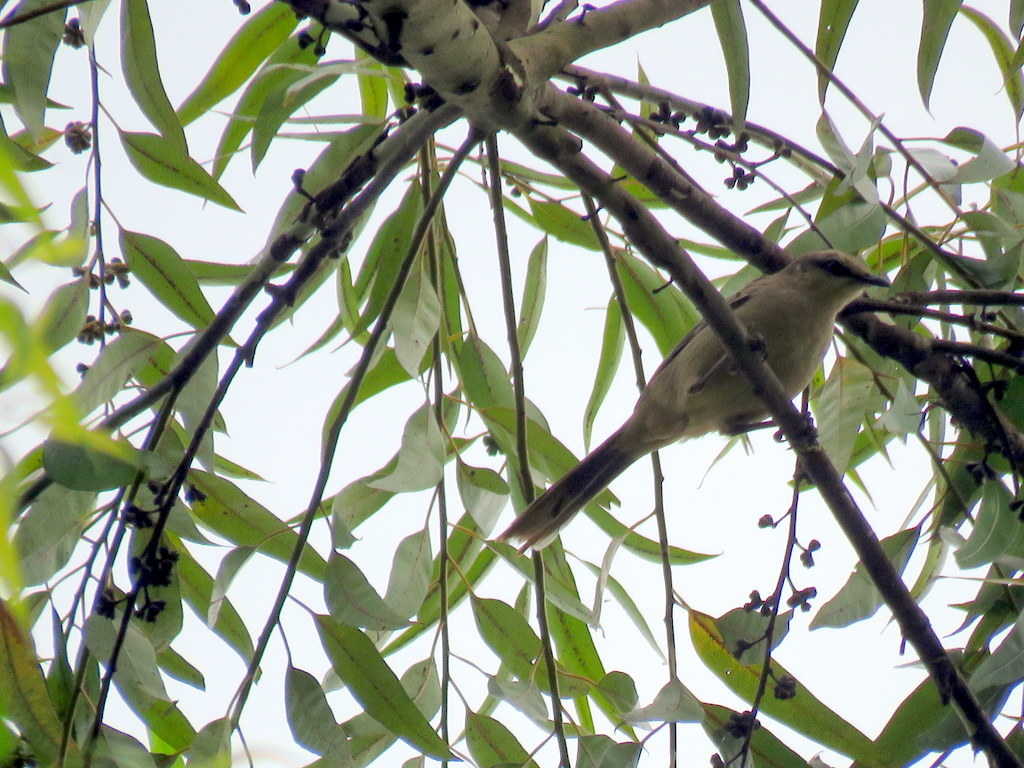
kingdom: Animalia
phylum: Chordata
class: Aves
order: Passeriformes
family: Mimidae
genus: Mimus
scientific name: Mimus saturninus
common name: Chalk-browed mockingbird
